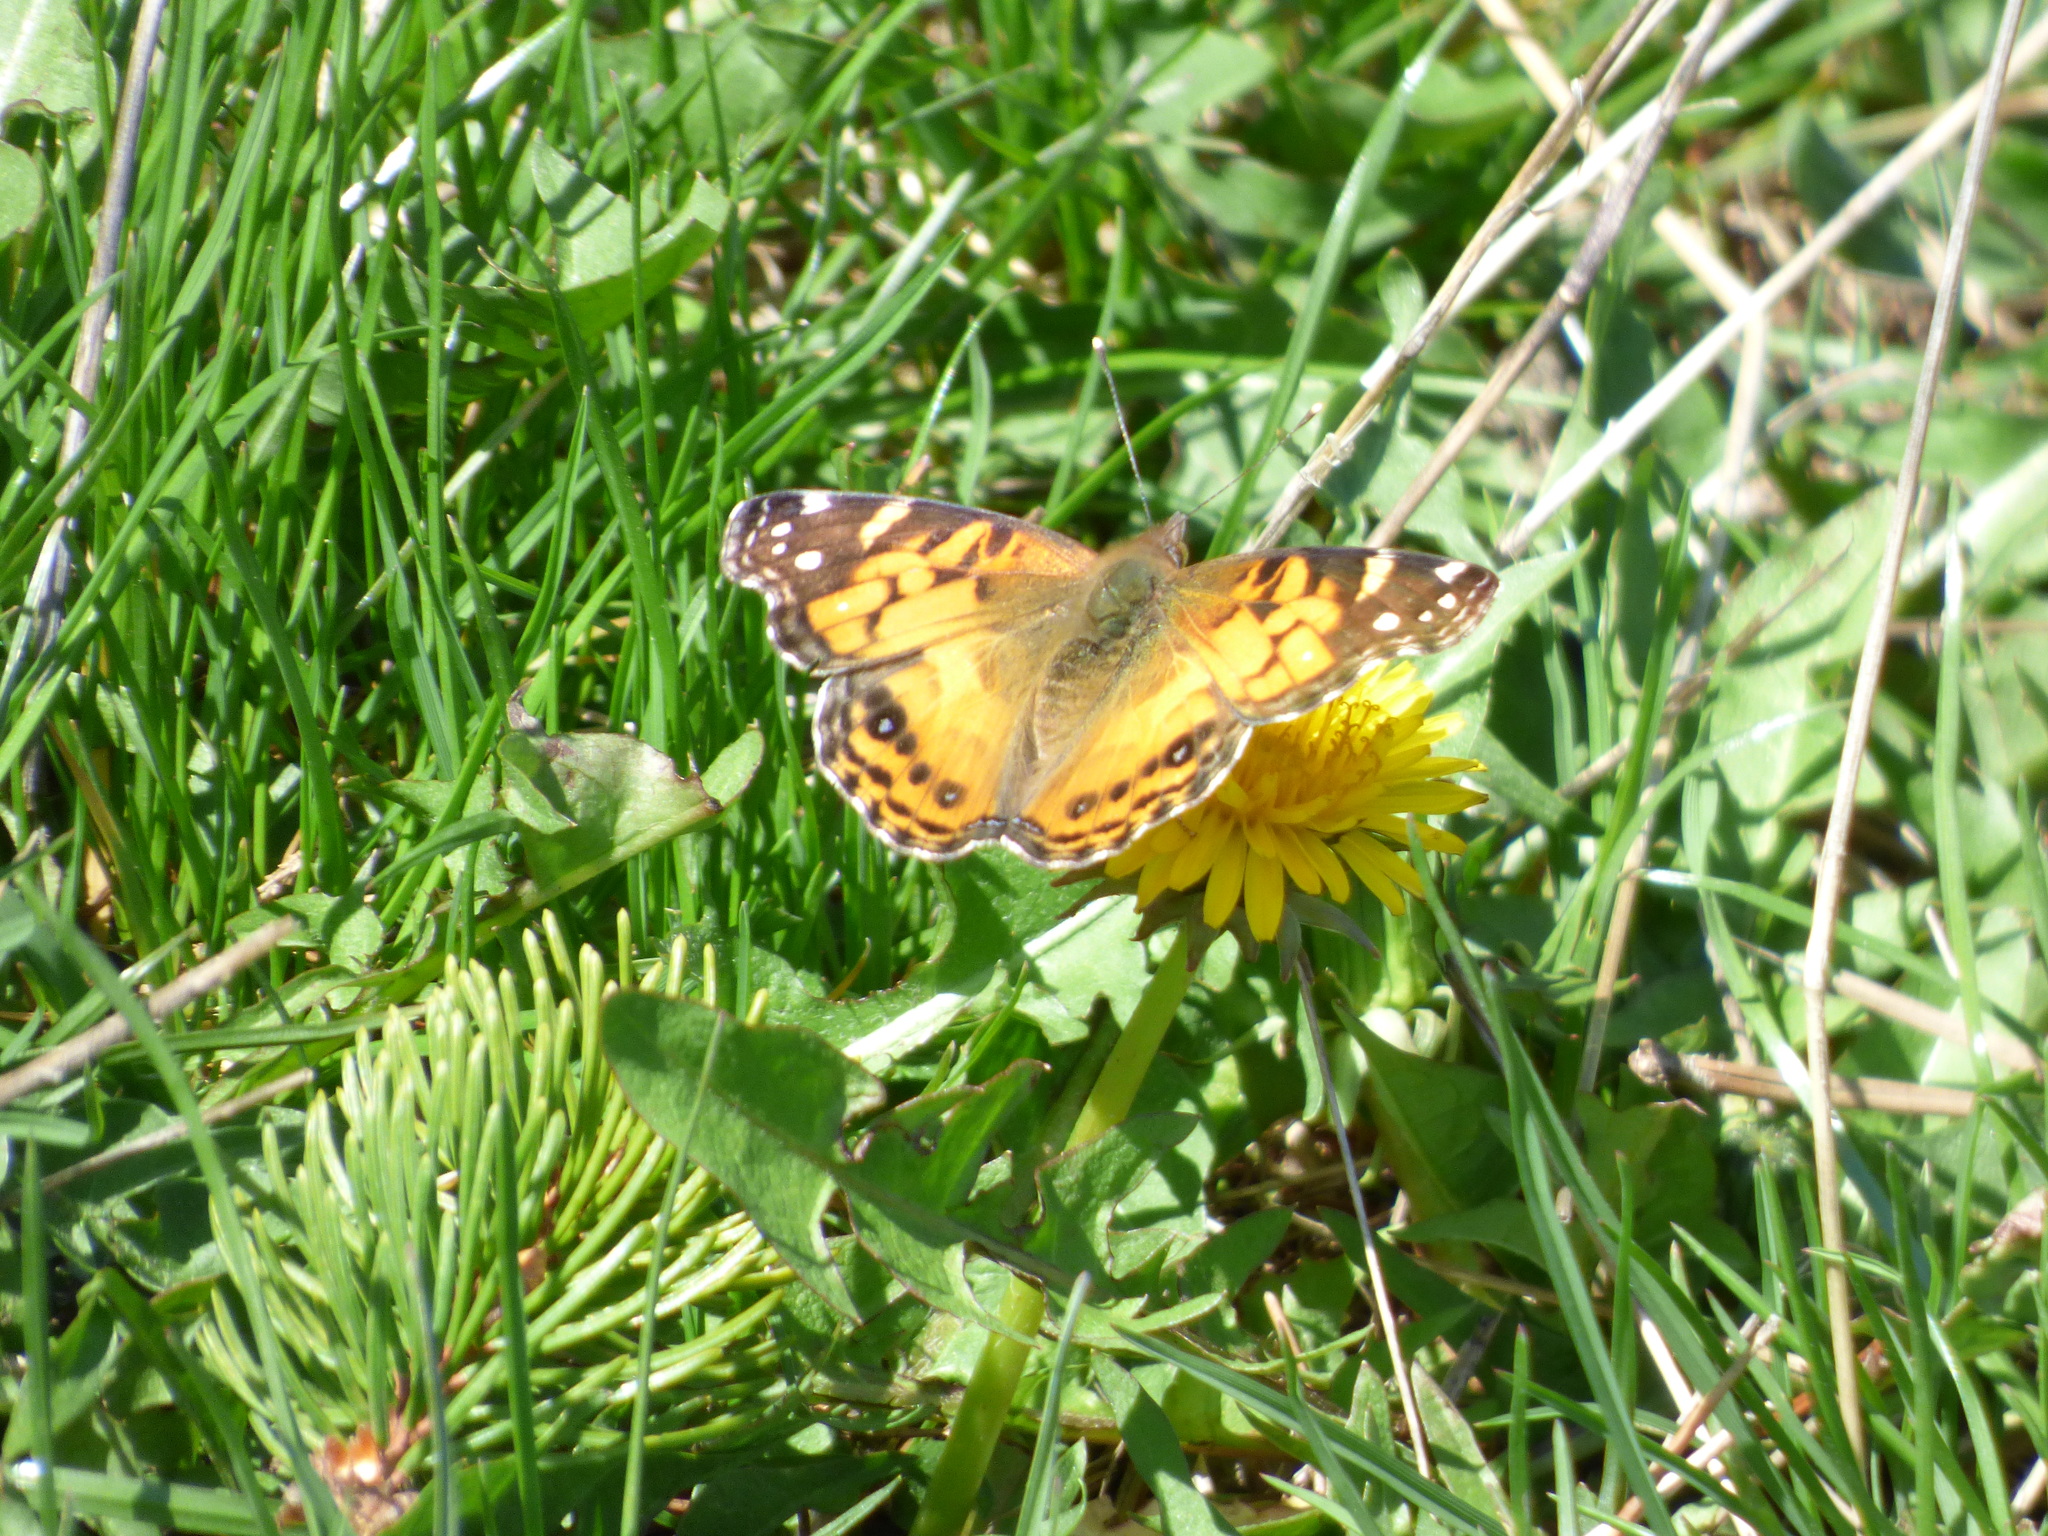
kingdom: Animalia
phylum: Arthropoda
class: Insecta
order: Lepidoptera
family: Nymphalidae
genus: Vanessa
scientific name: Vanessa virginiensis
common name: American lady
